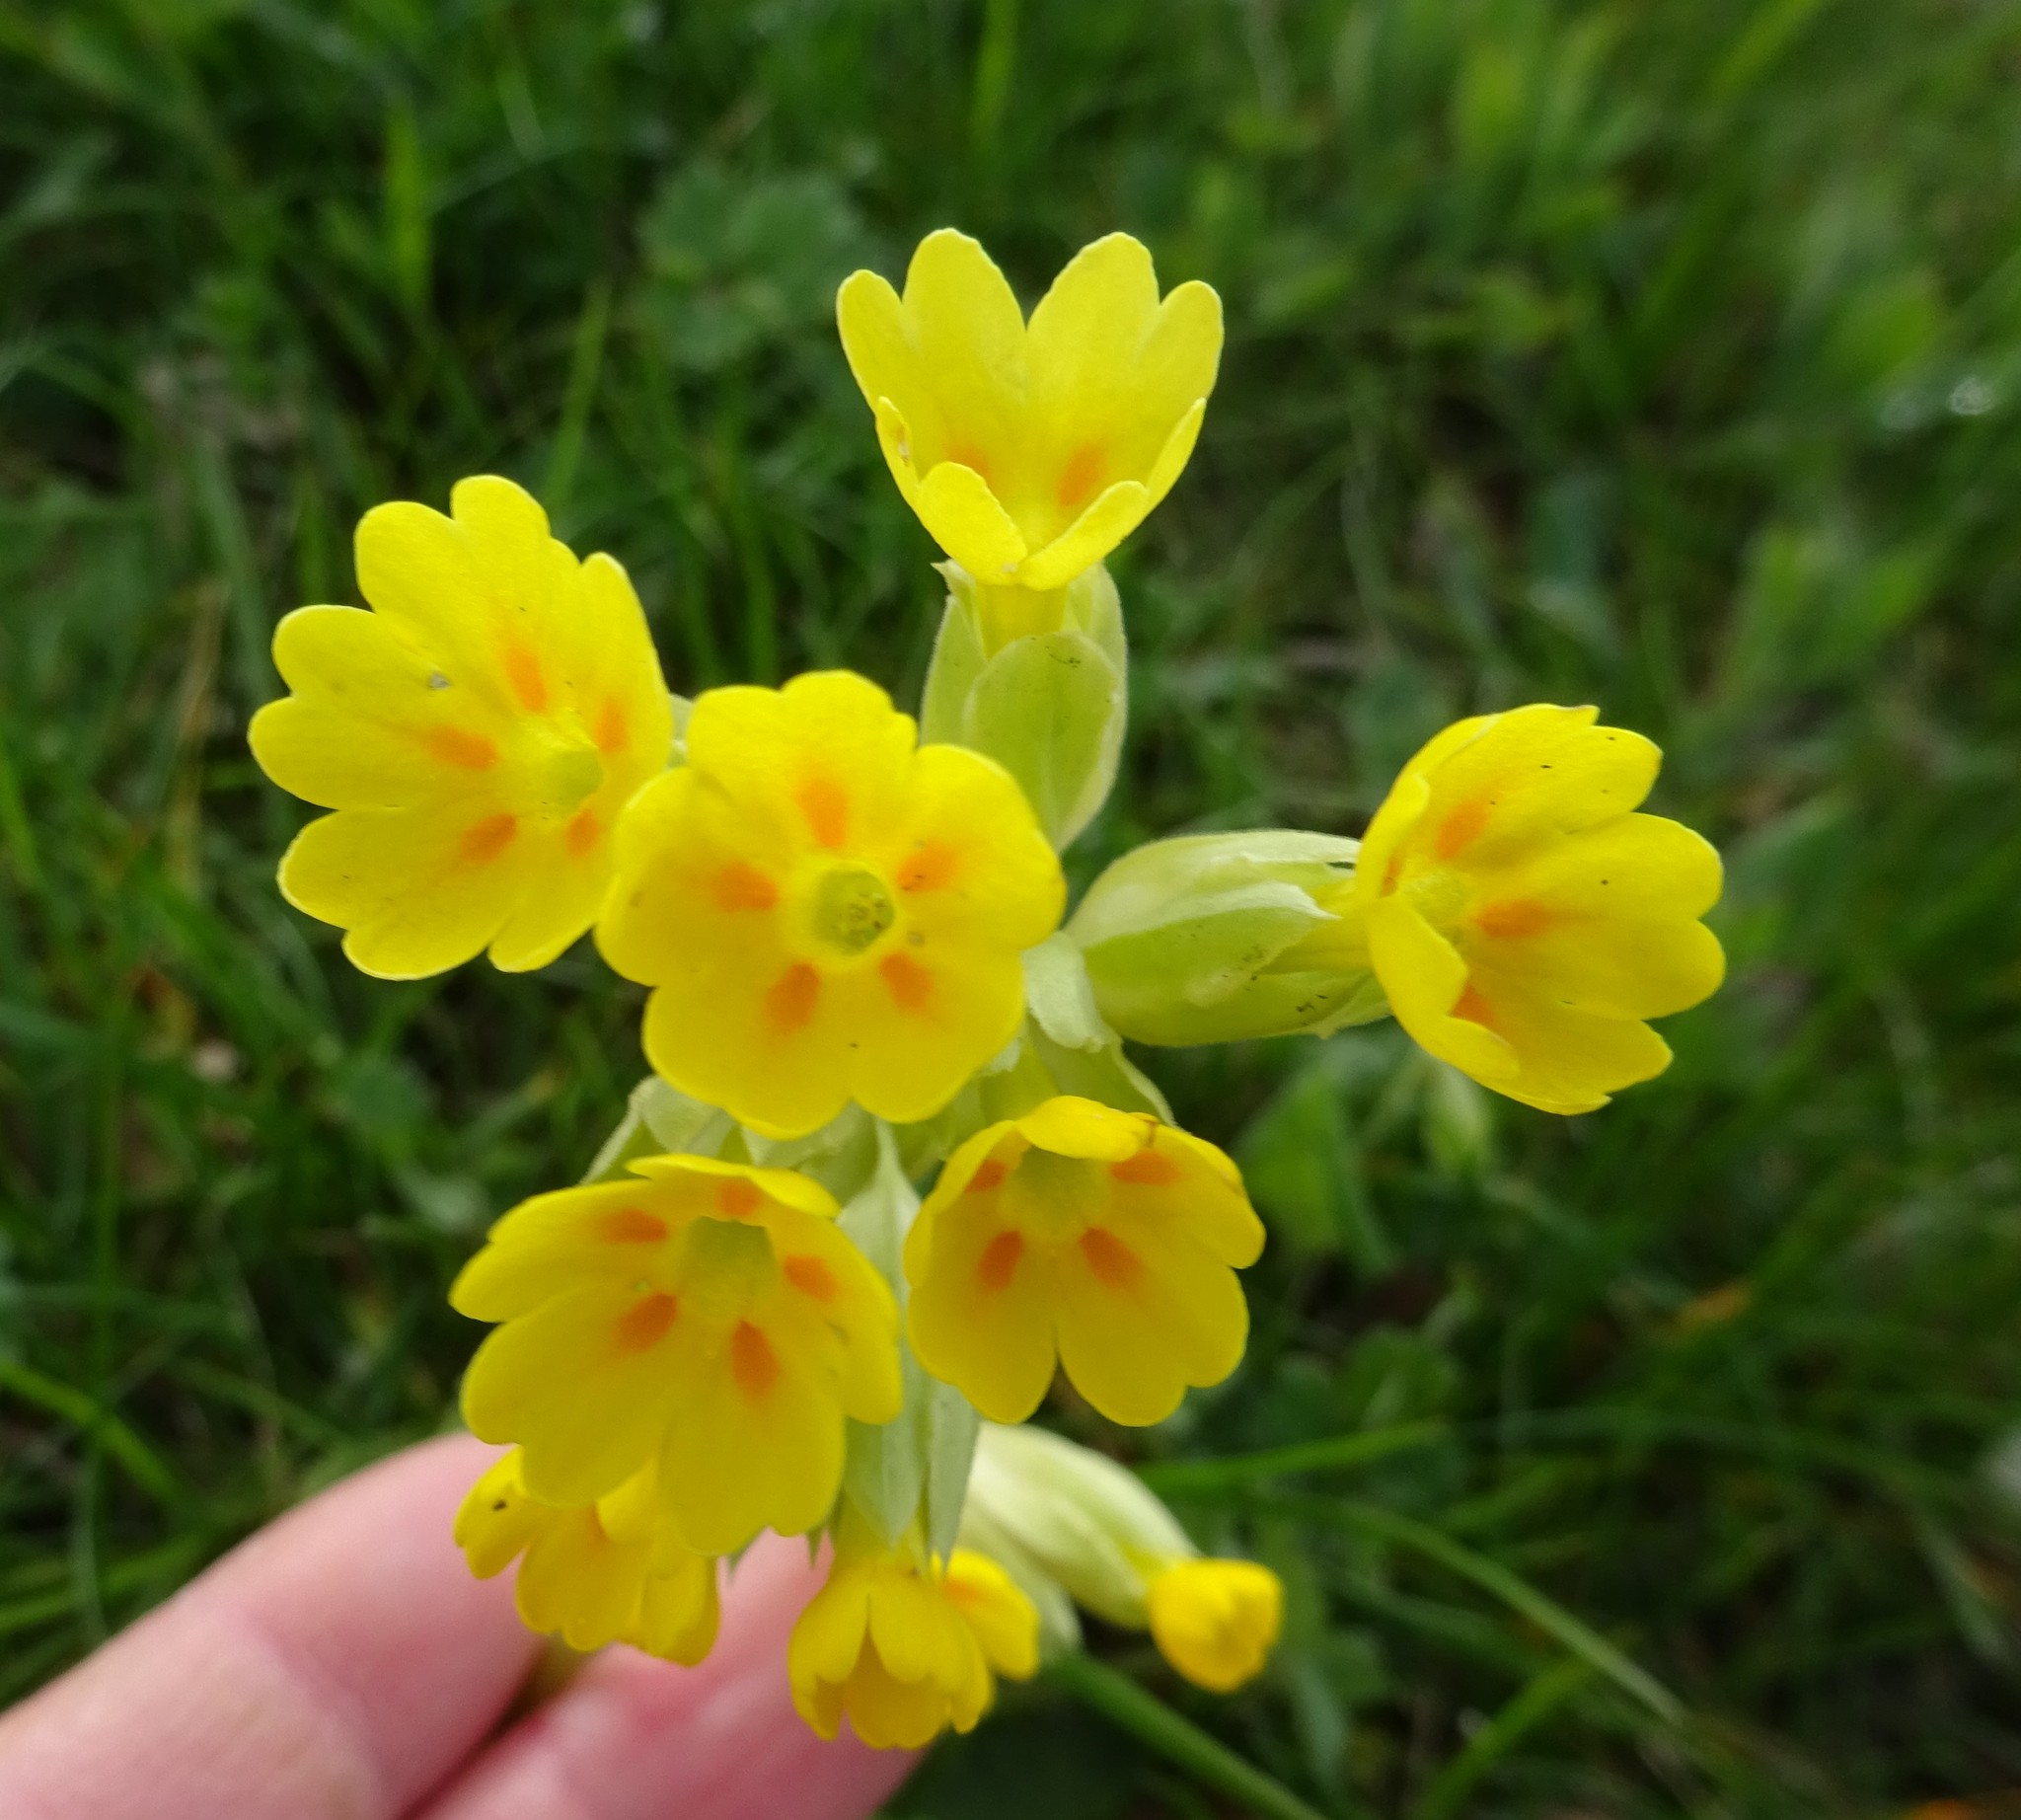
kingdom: Plantae
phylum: Tracheophyta
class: Magnoliopsida
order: Ericales
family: Primulaceae
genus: Primula
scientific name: Primula veris
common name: Cowslip
